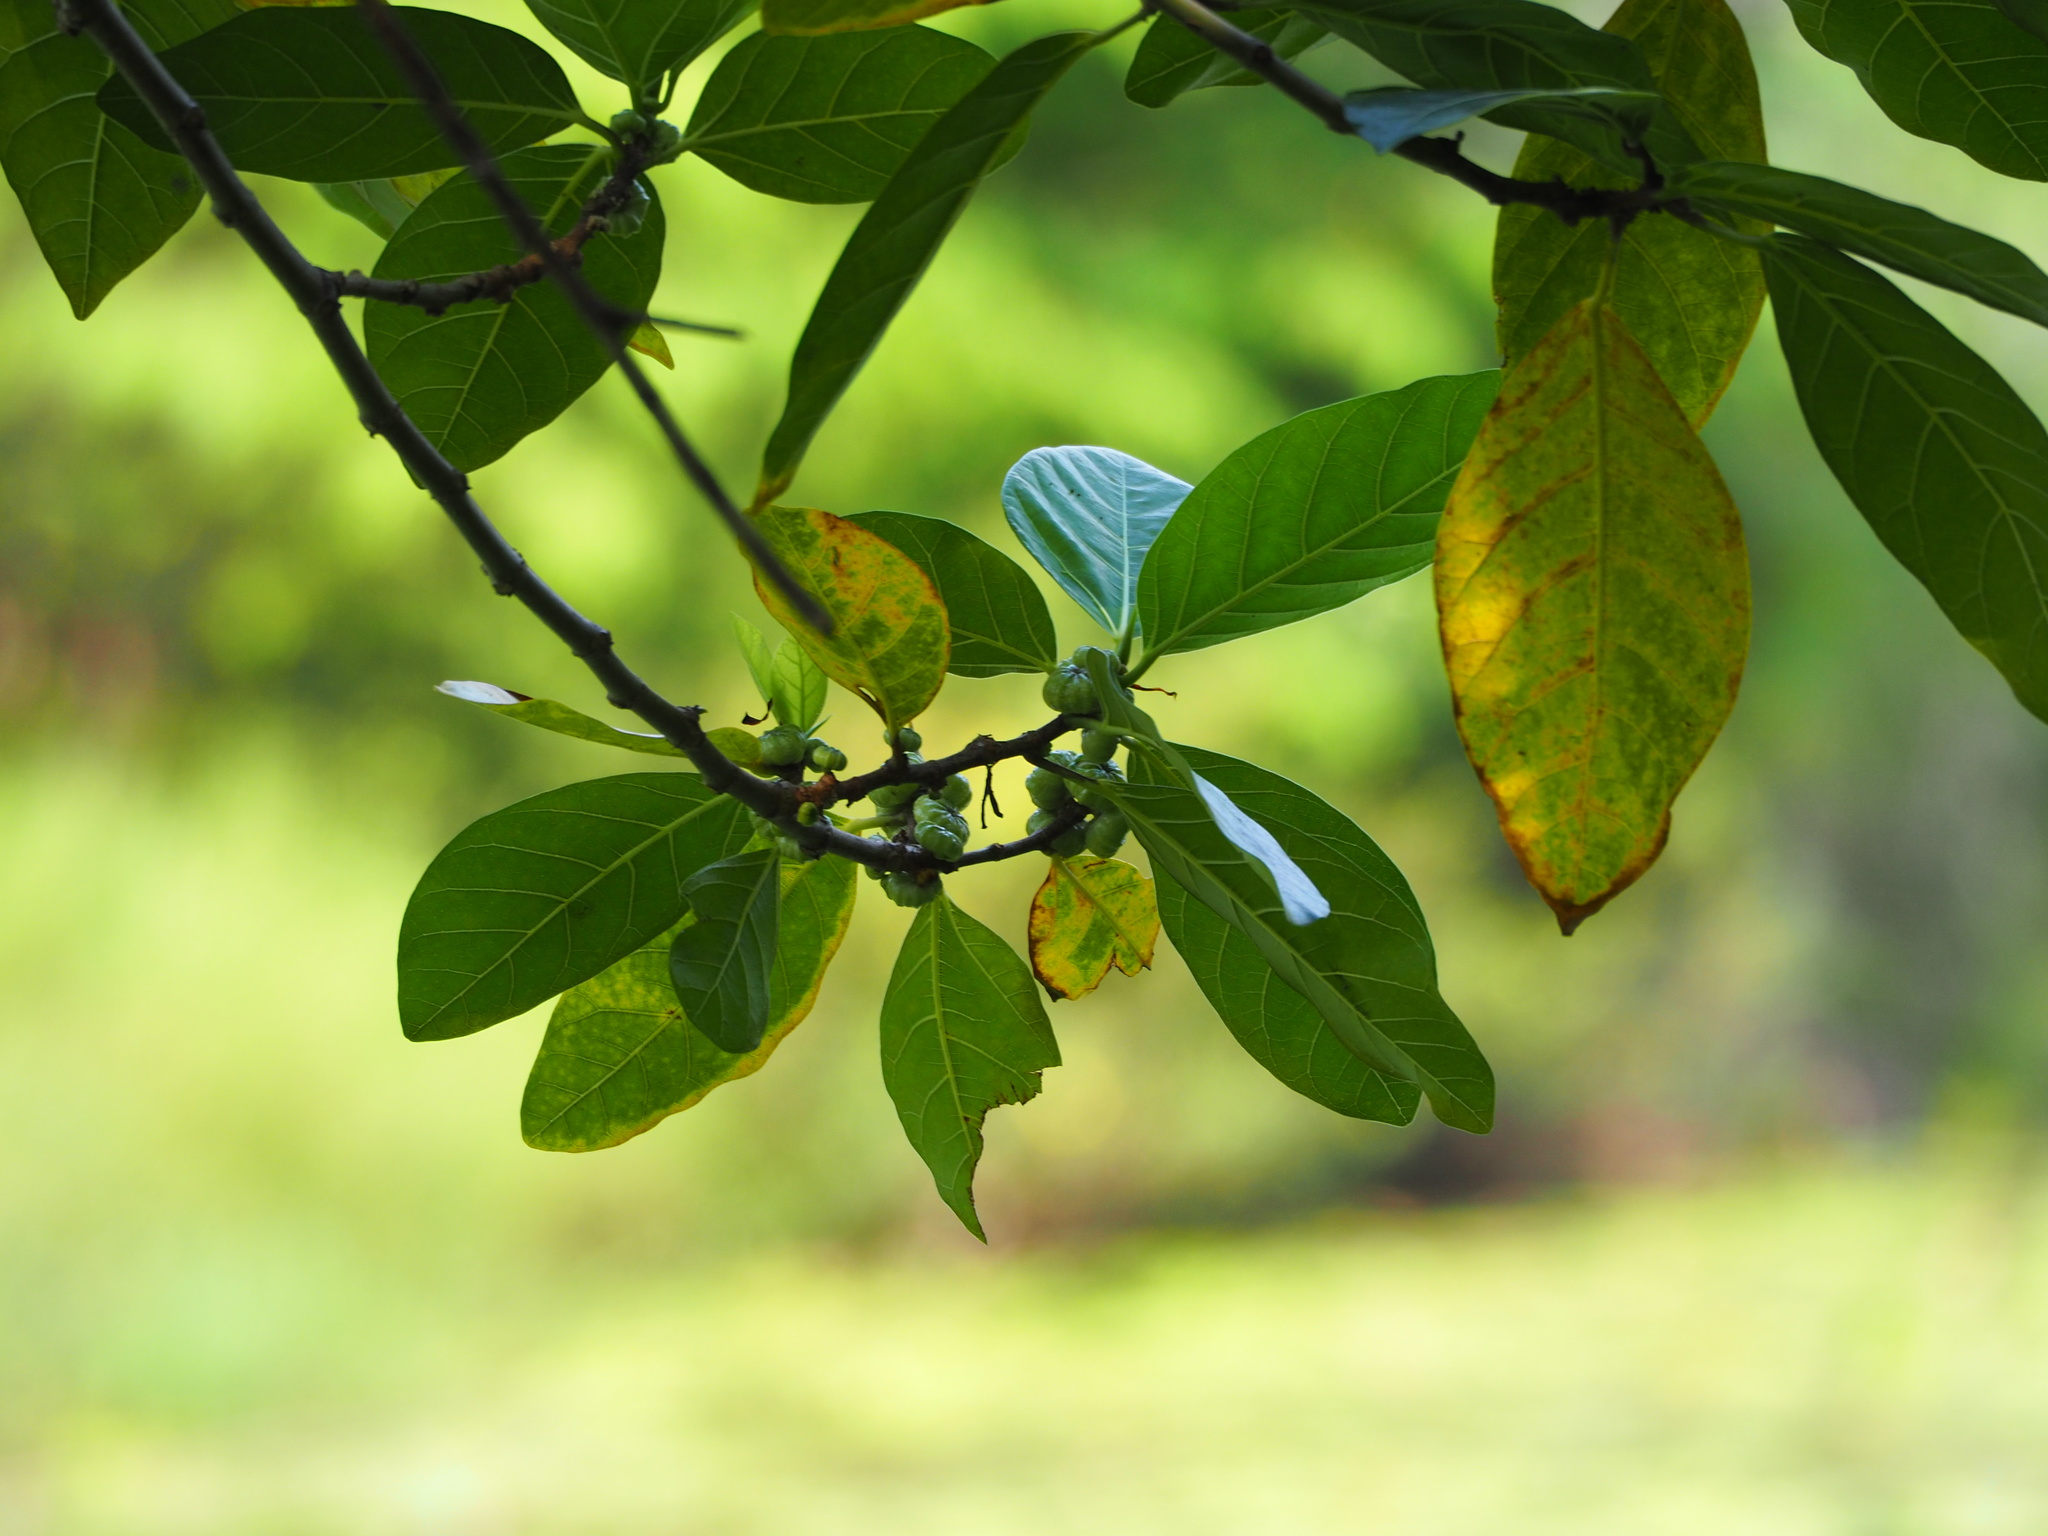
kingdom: Plantae
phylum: Tracheophyta
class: Magnoliopsida
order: Rosales
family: Moraceae
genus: Ficus
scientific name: Ficus septica
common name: Septic fig
